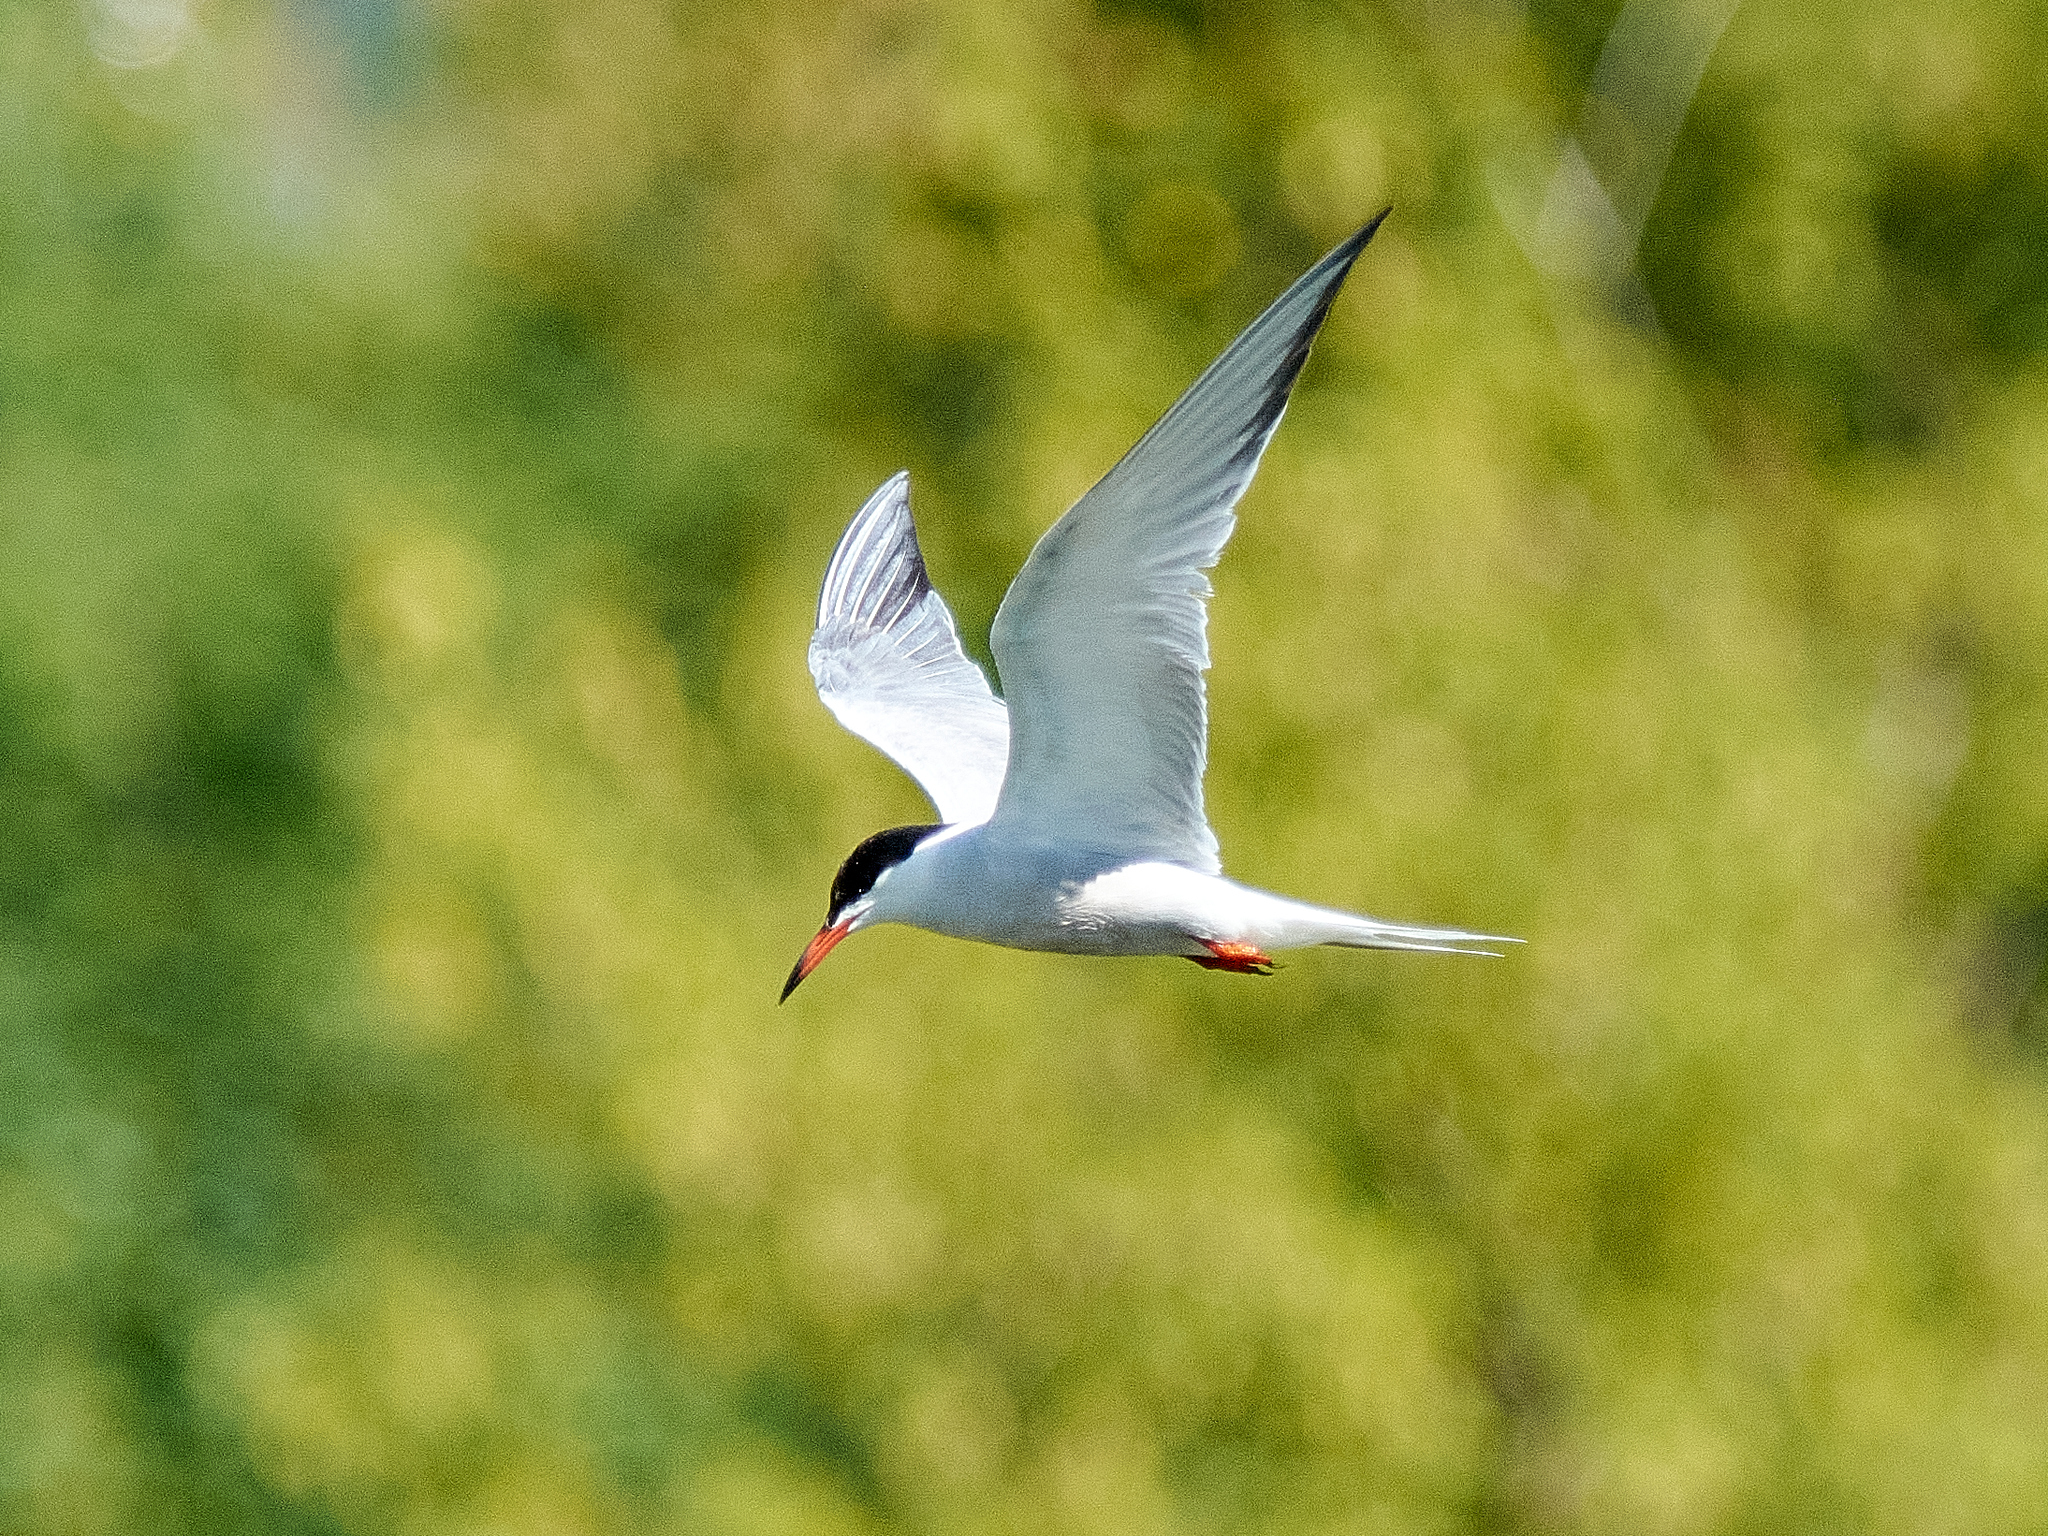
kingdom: Animalia
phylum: Chordata
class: Aves
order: Charadriiformes
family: Laridae
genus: Sterna
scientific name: Sterna hirundo
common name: Common tern
